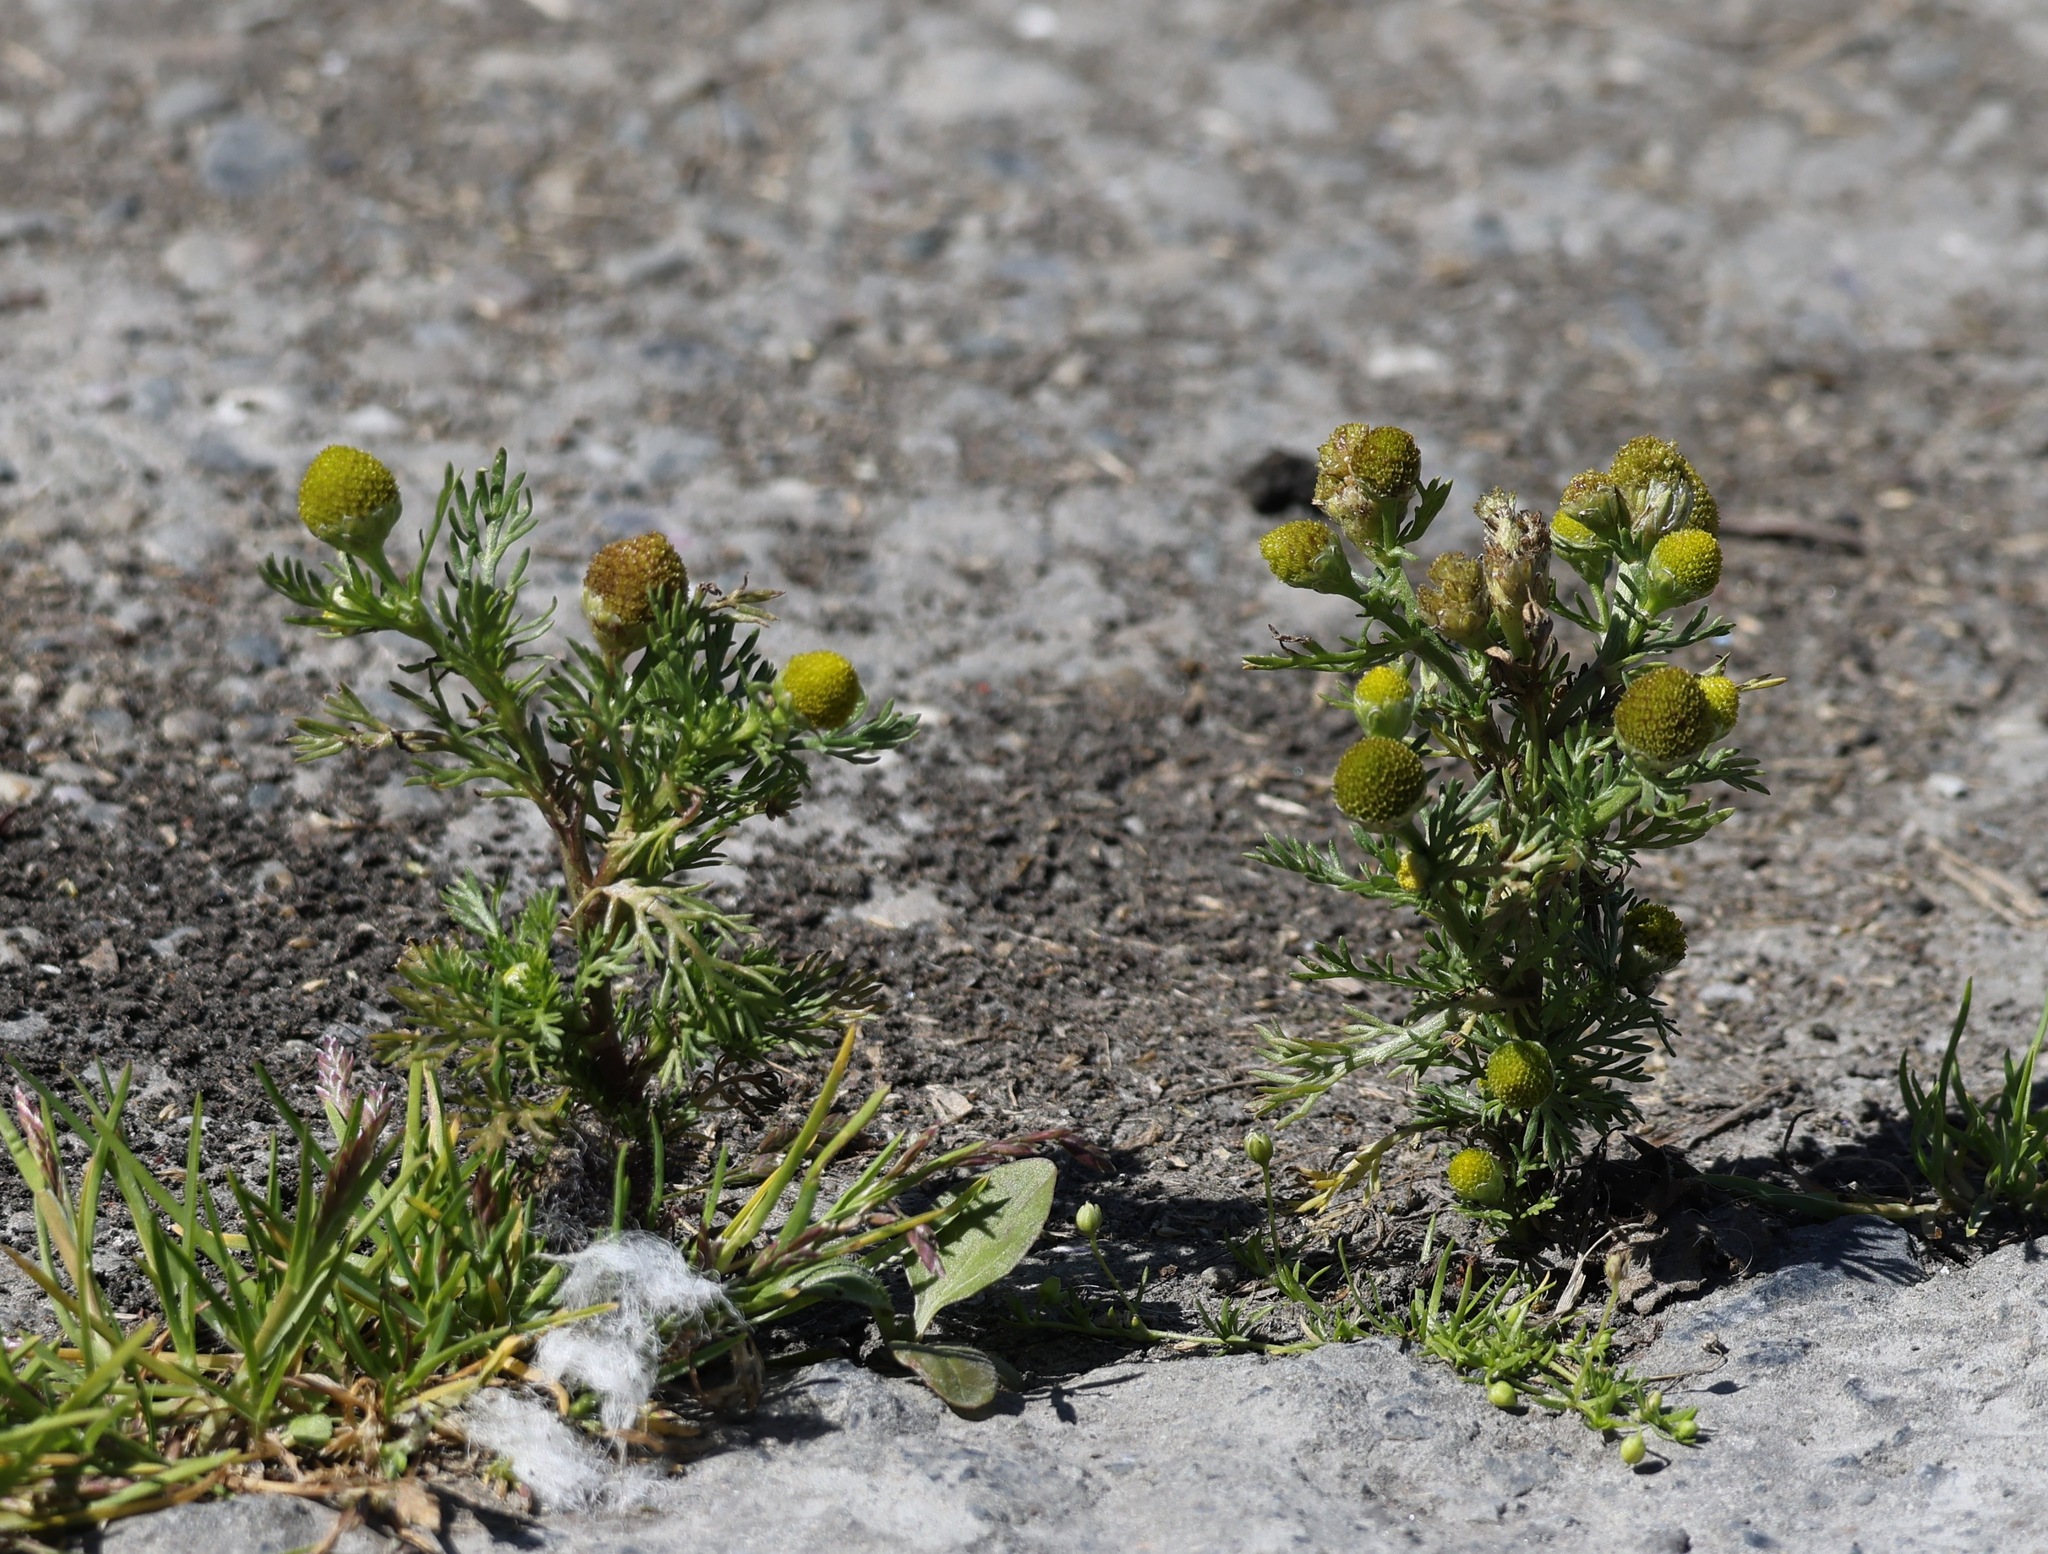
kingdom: Plantae
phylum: Tracheophyta
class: Magnoliopsida
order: Asterales
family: Asteraceae
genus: Matricaria
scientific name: Matricaria discoidea
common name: Disc mayweed
